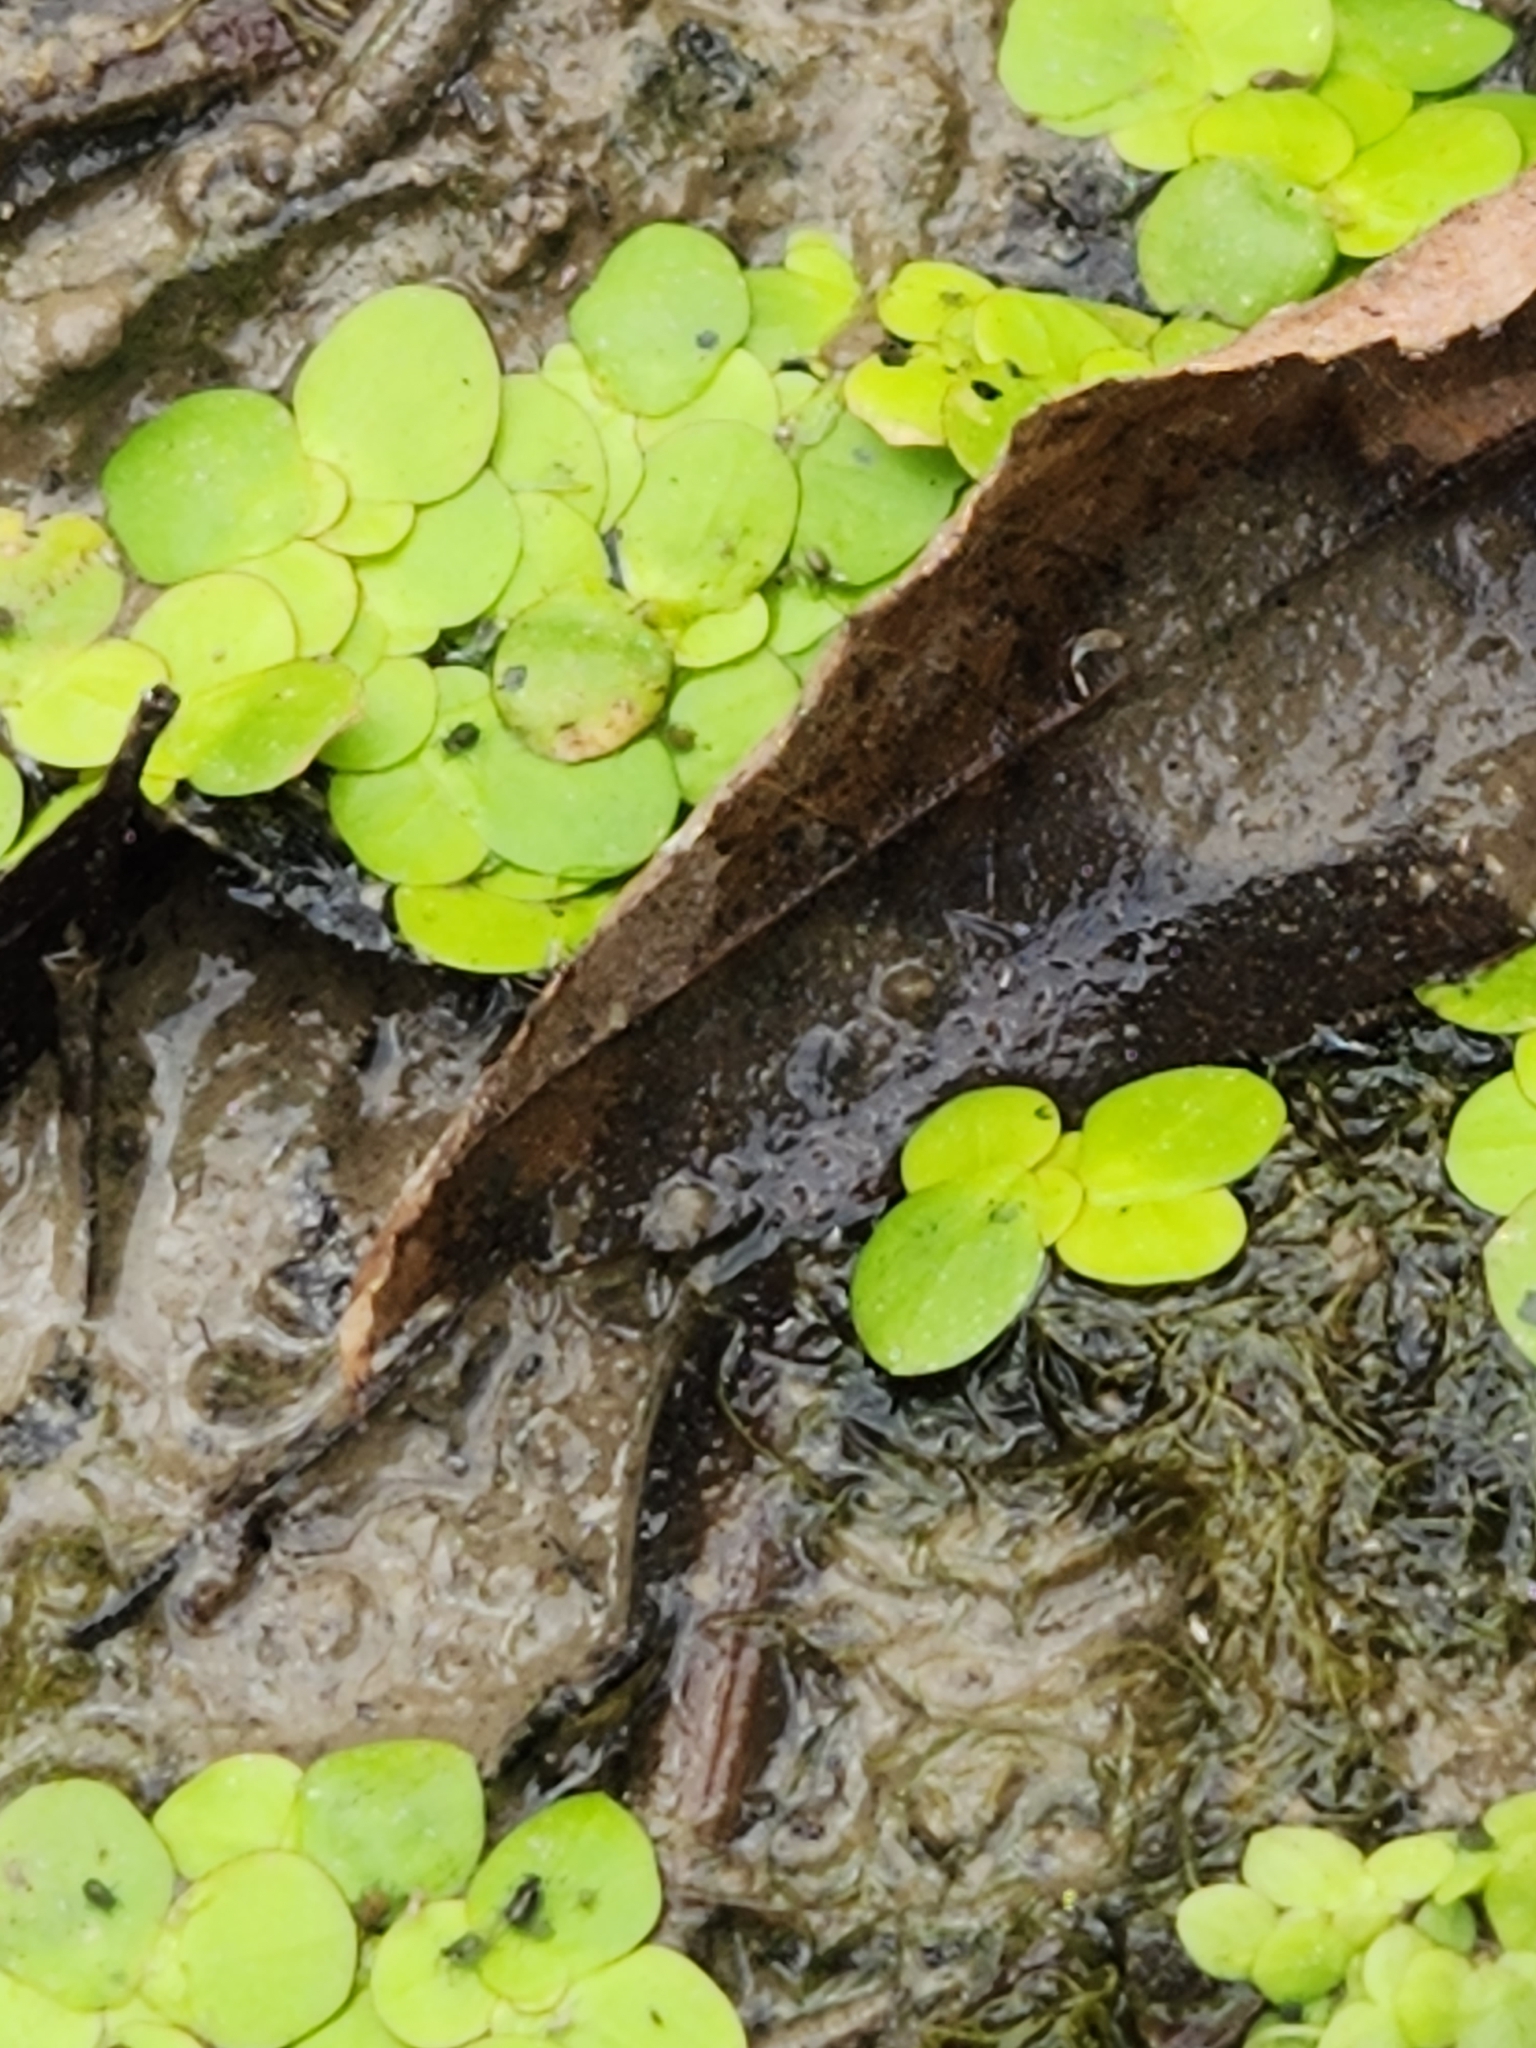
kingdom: Plantae
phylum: Tracheophyta
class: Liliopsida
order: Alismatales
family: Araceae
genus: Spirodela
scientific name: Spirodela polyrhiza
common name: Great duckweed
